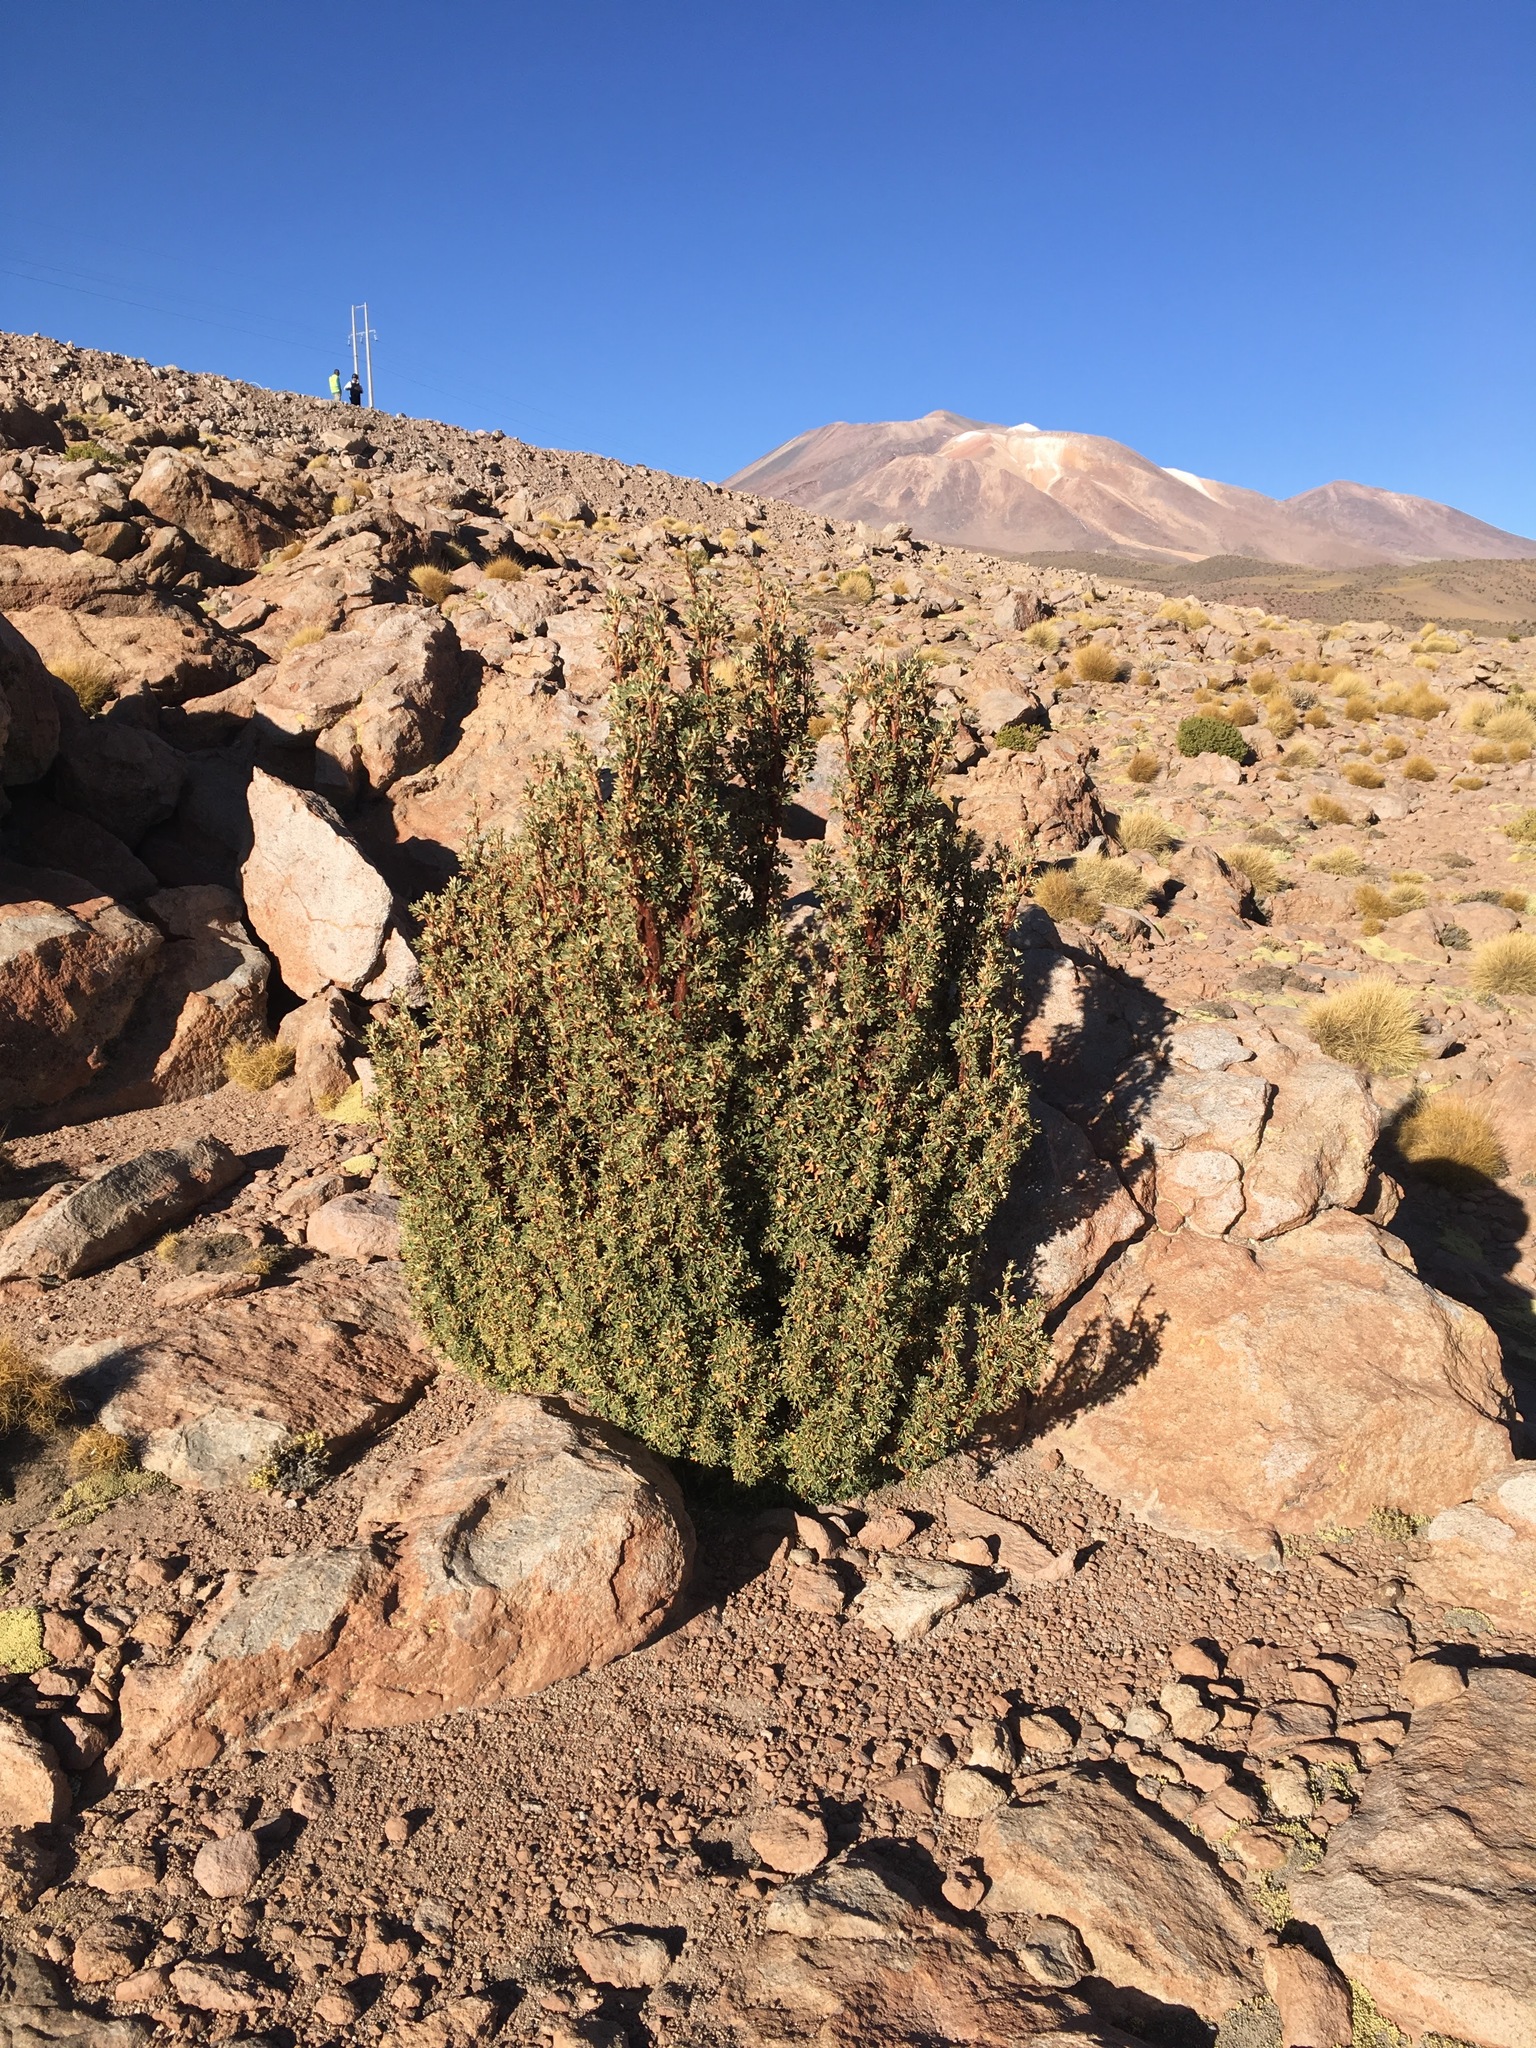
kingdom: Plantae
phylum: Tracheophyta
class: Magnoliopsida
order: Rosales
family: Rosaceae
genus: Polylepis
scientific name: Polylepis tarapacana
